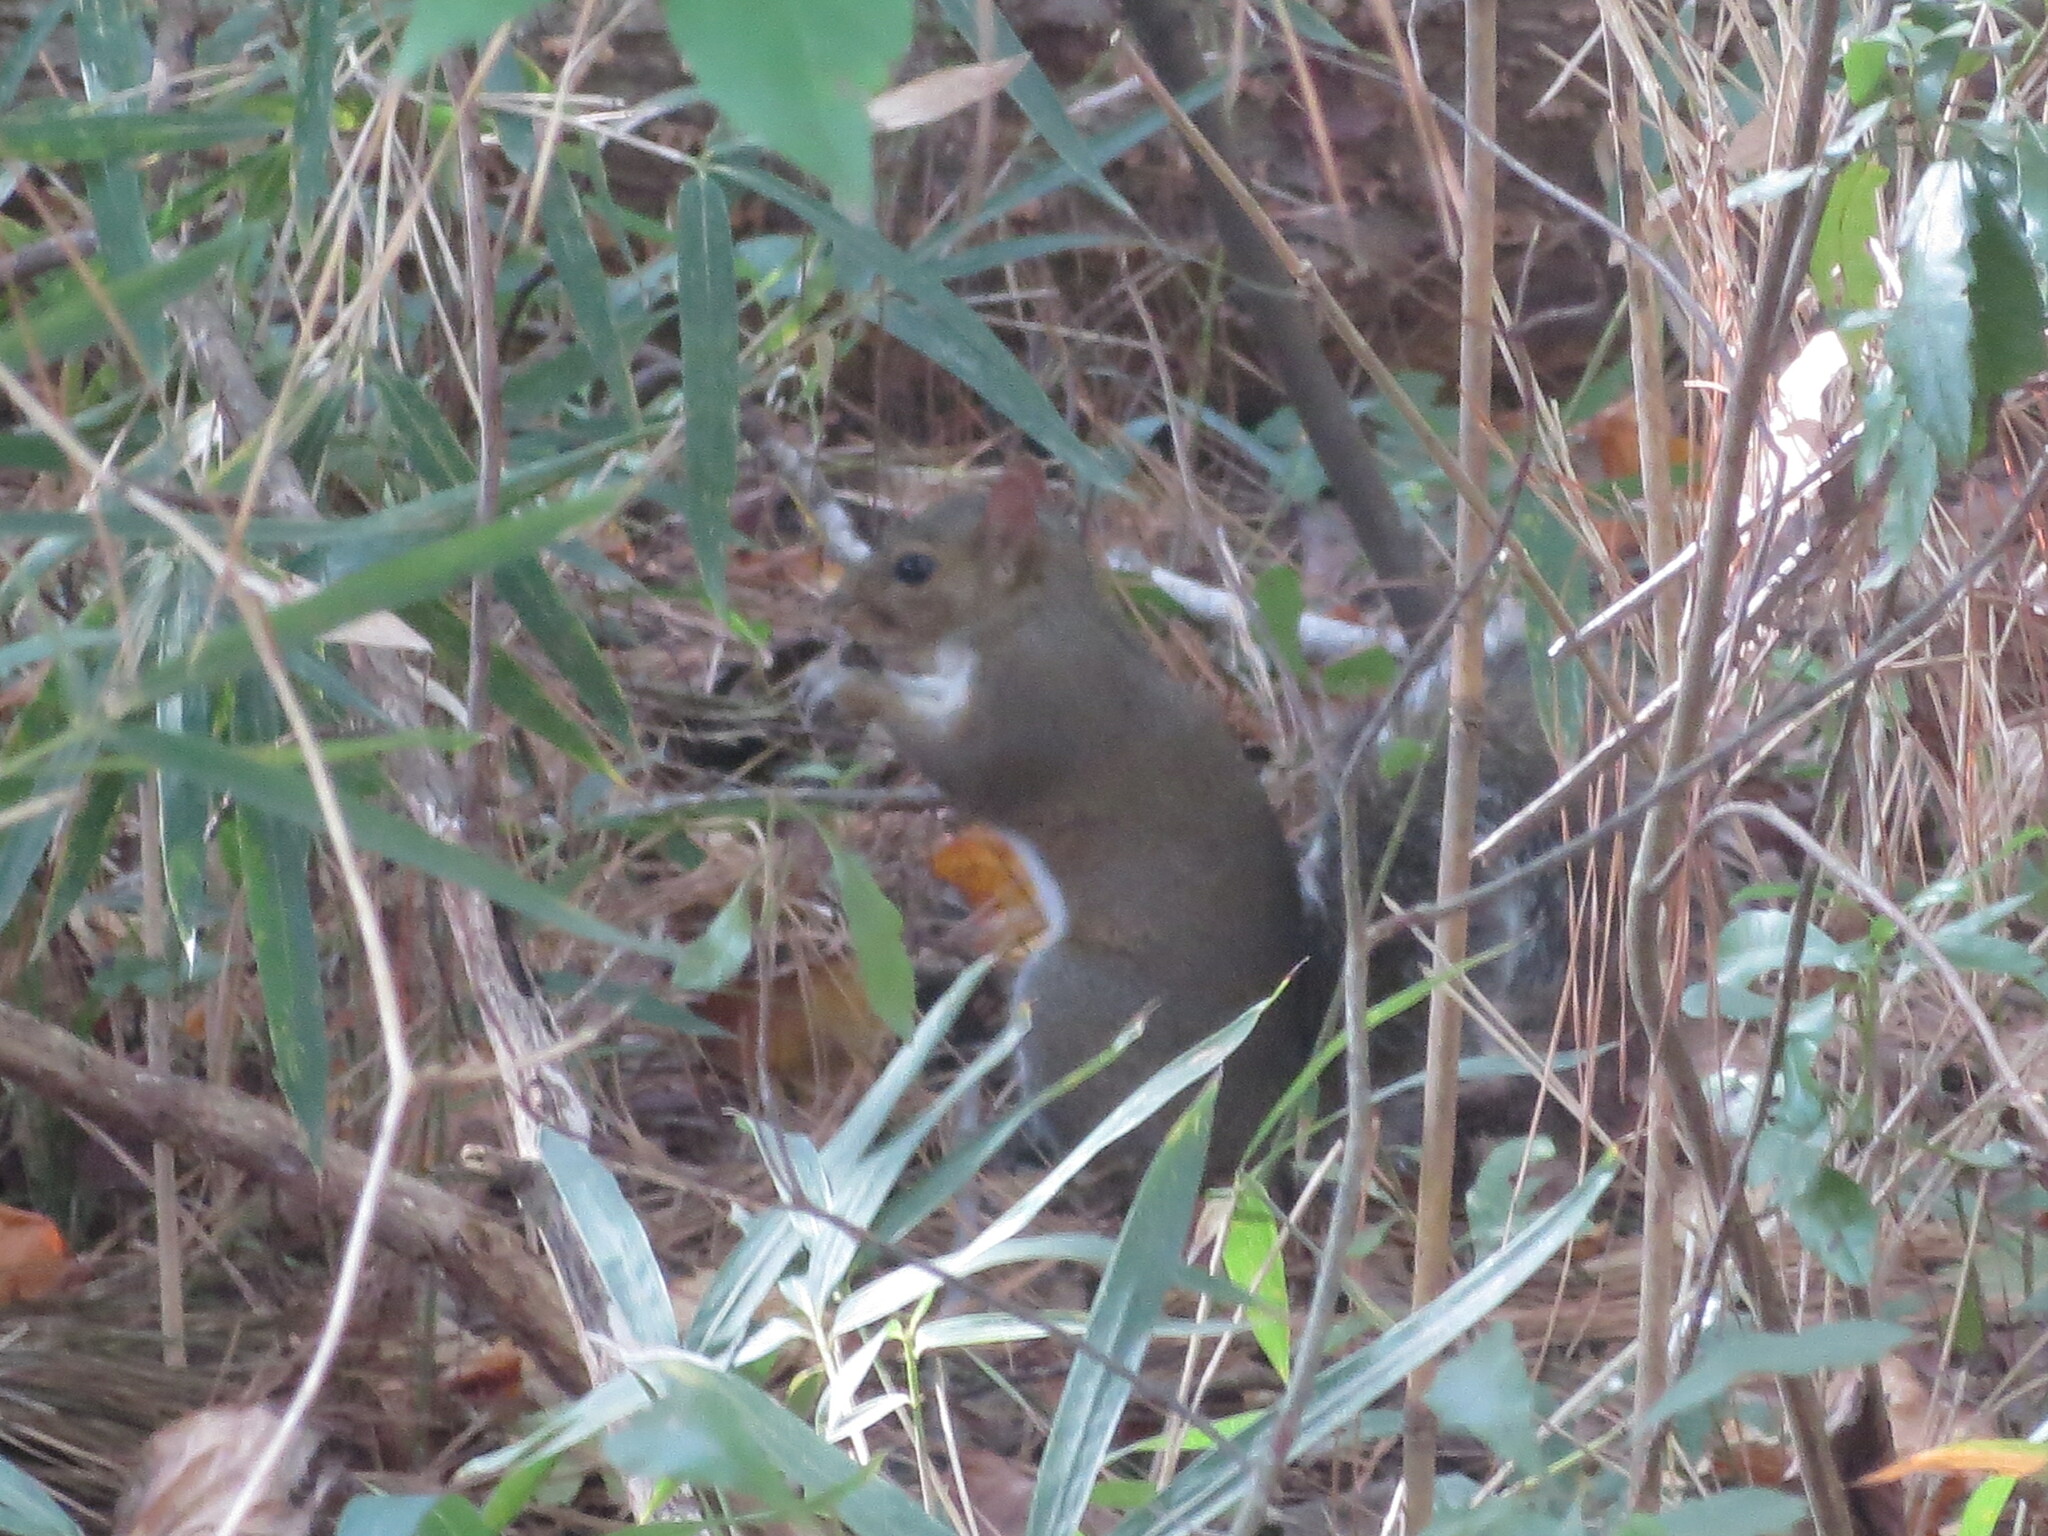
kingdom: Animalia
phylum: Chordata
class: Mammalia
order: Rodentia
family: Sciuridae
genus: Sciurus
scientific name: Sciurus carolinensis
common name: Eastern gray squirrel
